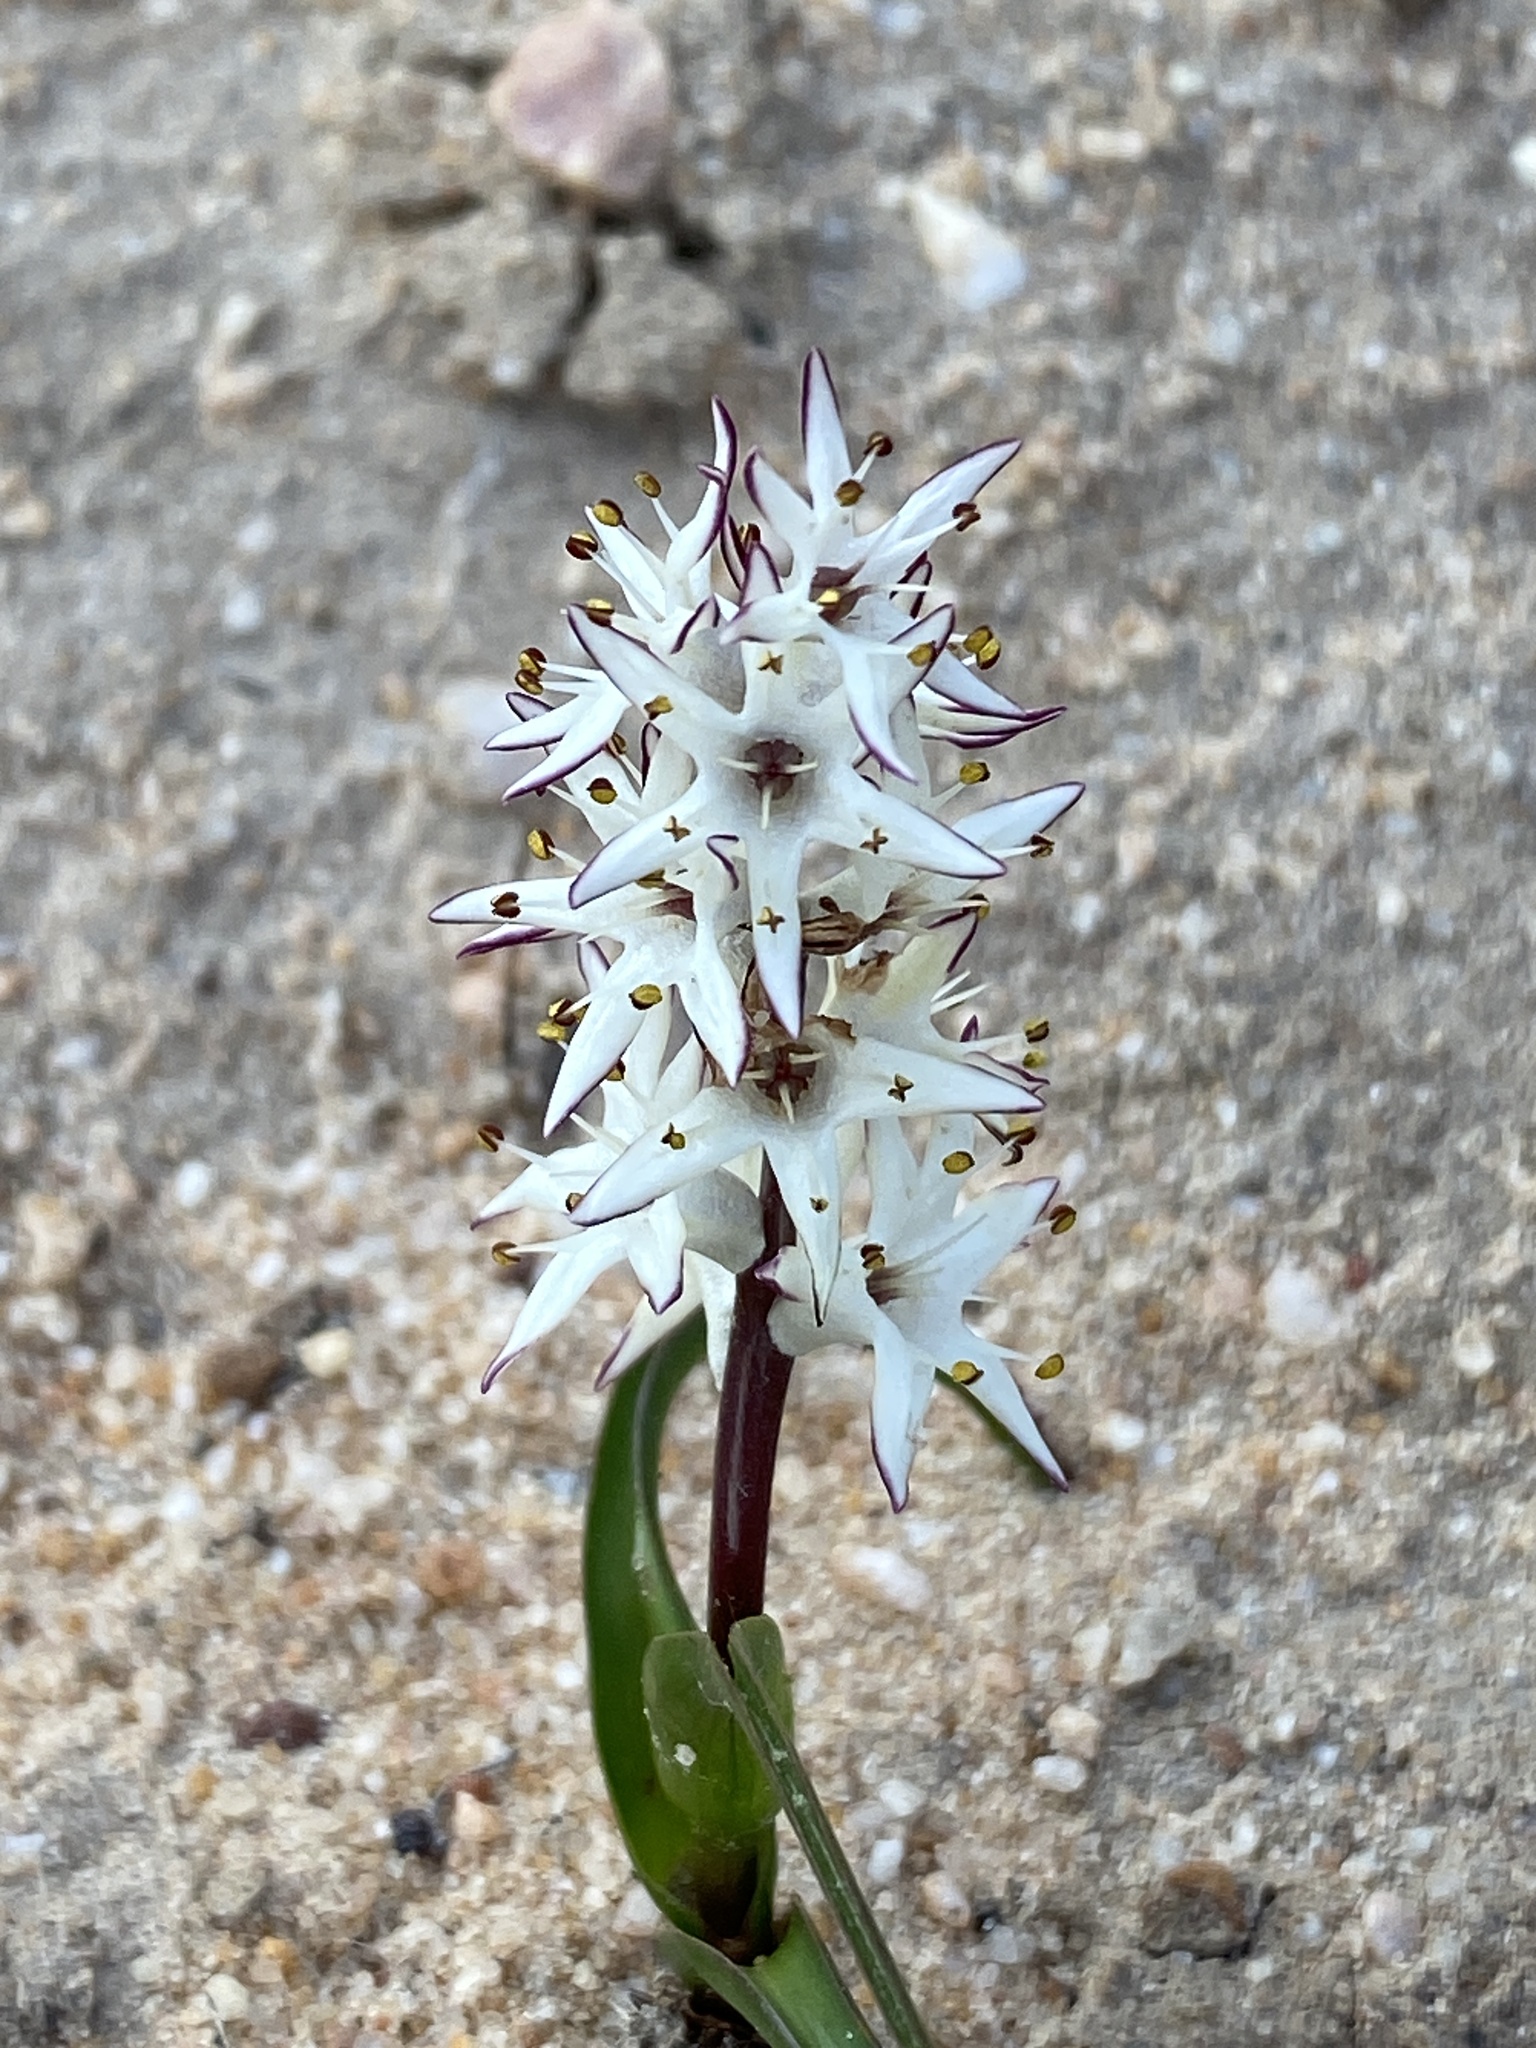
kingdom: Plantae
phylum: Tracheophyta
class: Liliopsida
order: Liliales
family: Colchicaceae
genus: Wurmbea
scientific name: Wurmbea spicata
